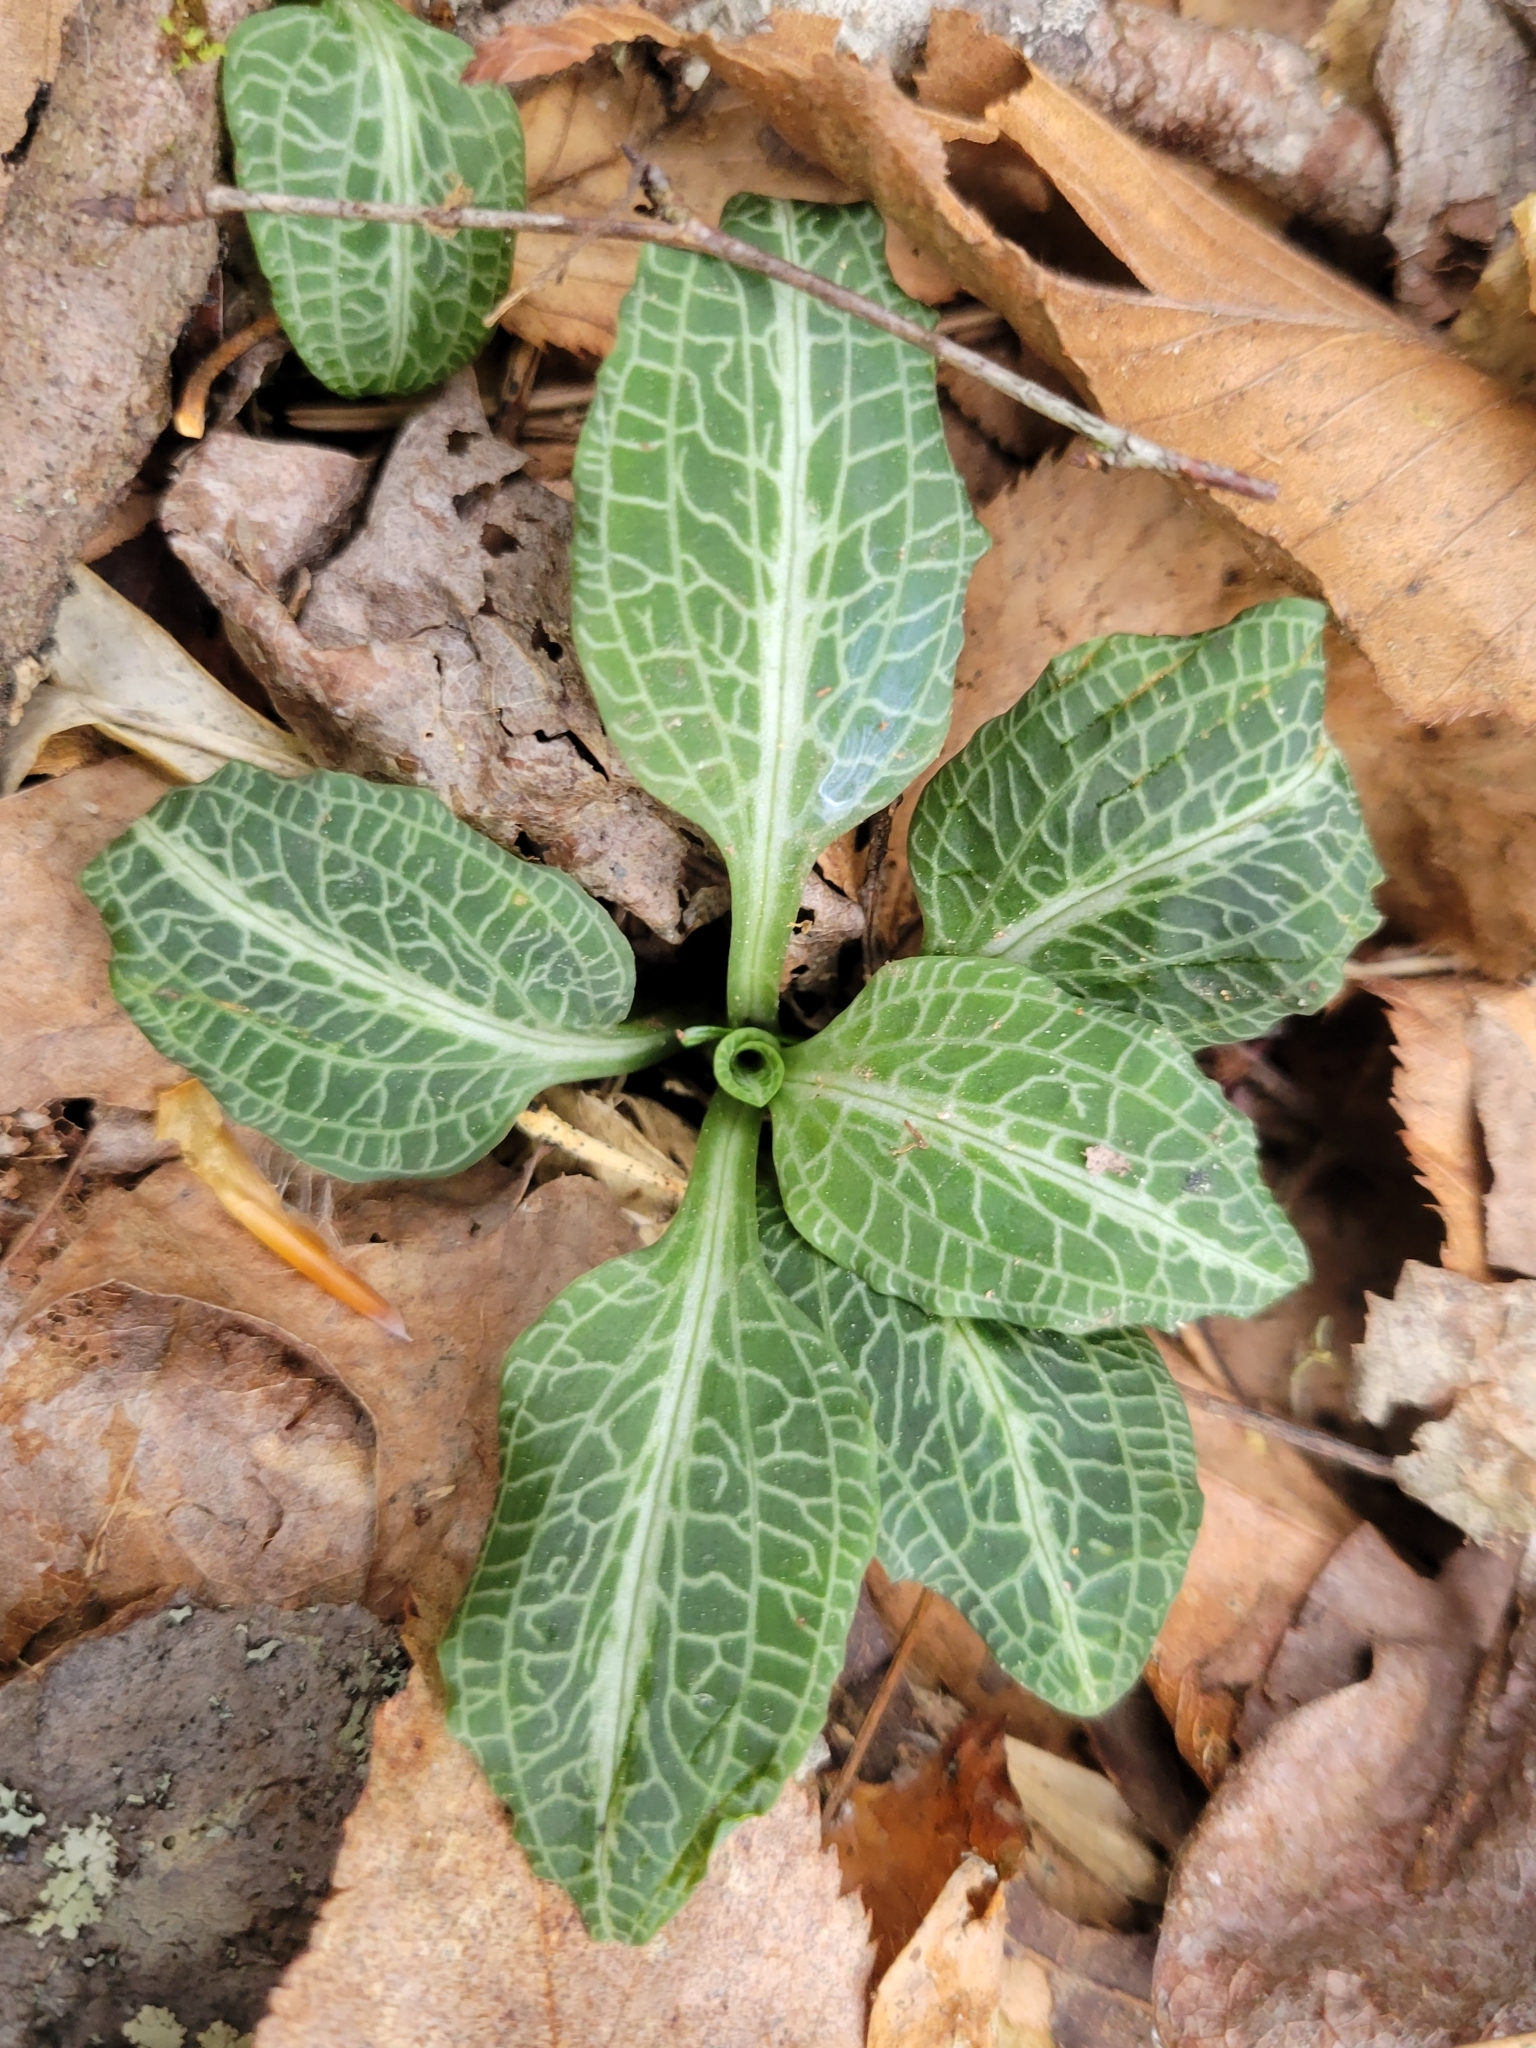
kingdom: Plantae
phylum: Tracheophyta
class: Liliopsida
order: Asparagales
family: Orchidaceae
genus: Goodyera
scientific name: Goodyera pubescens
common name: Downy rattlesnake-plantain
